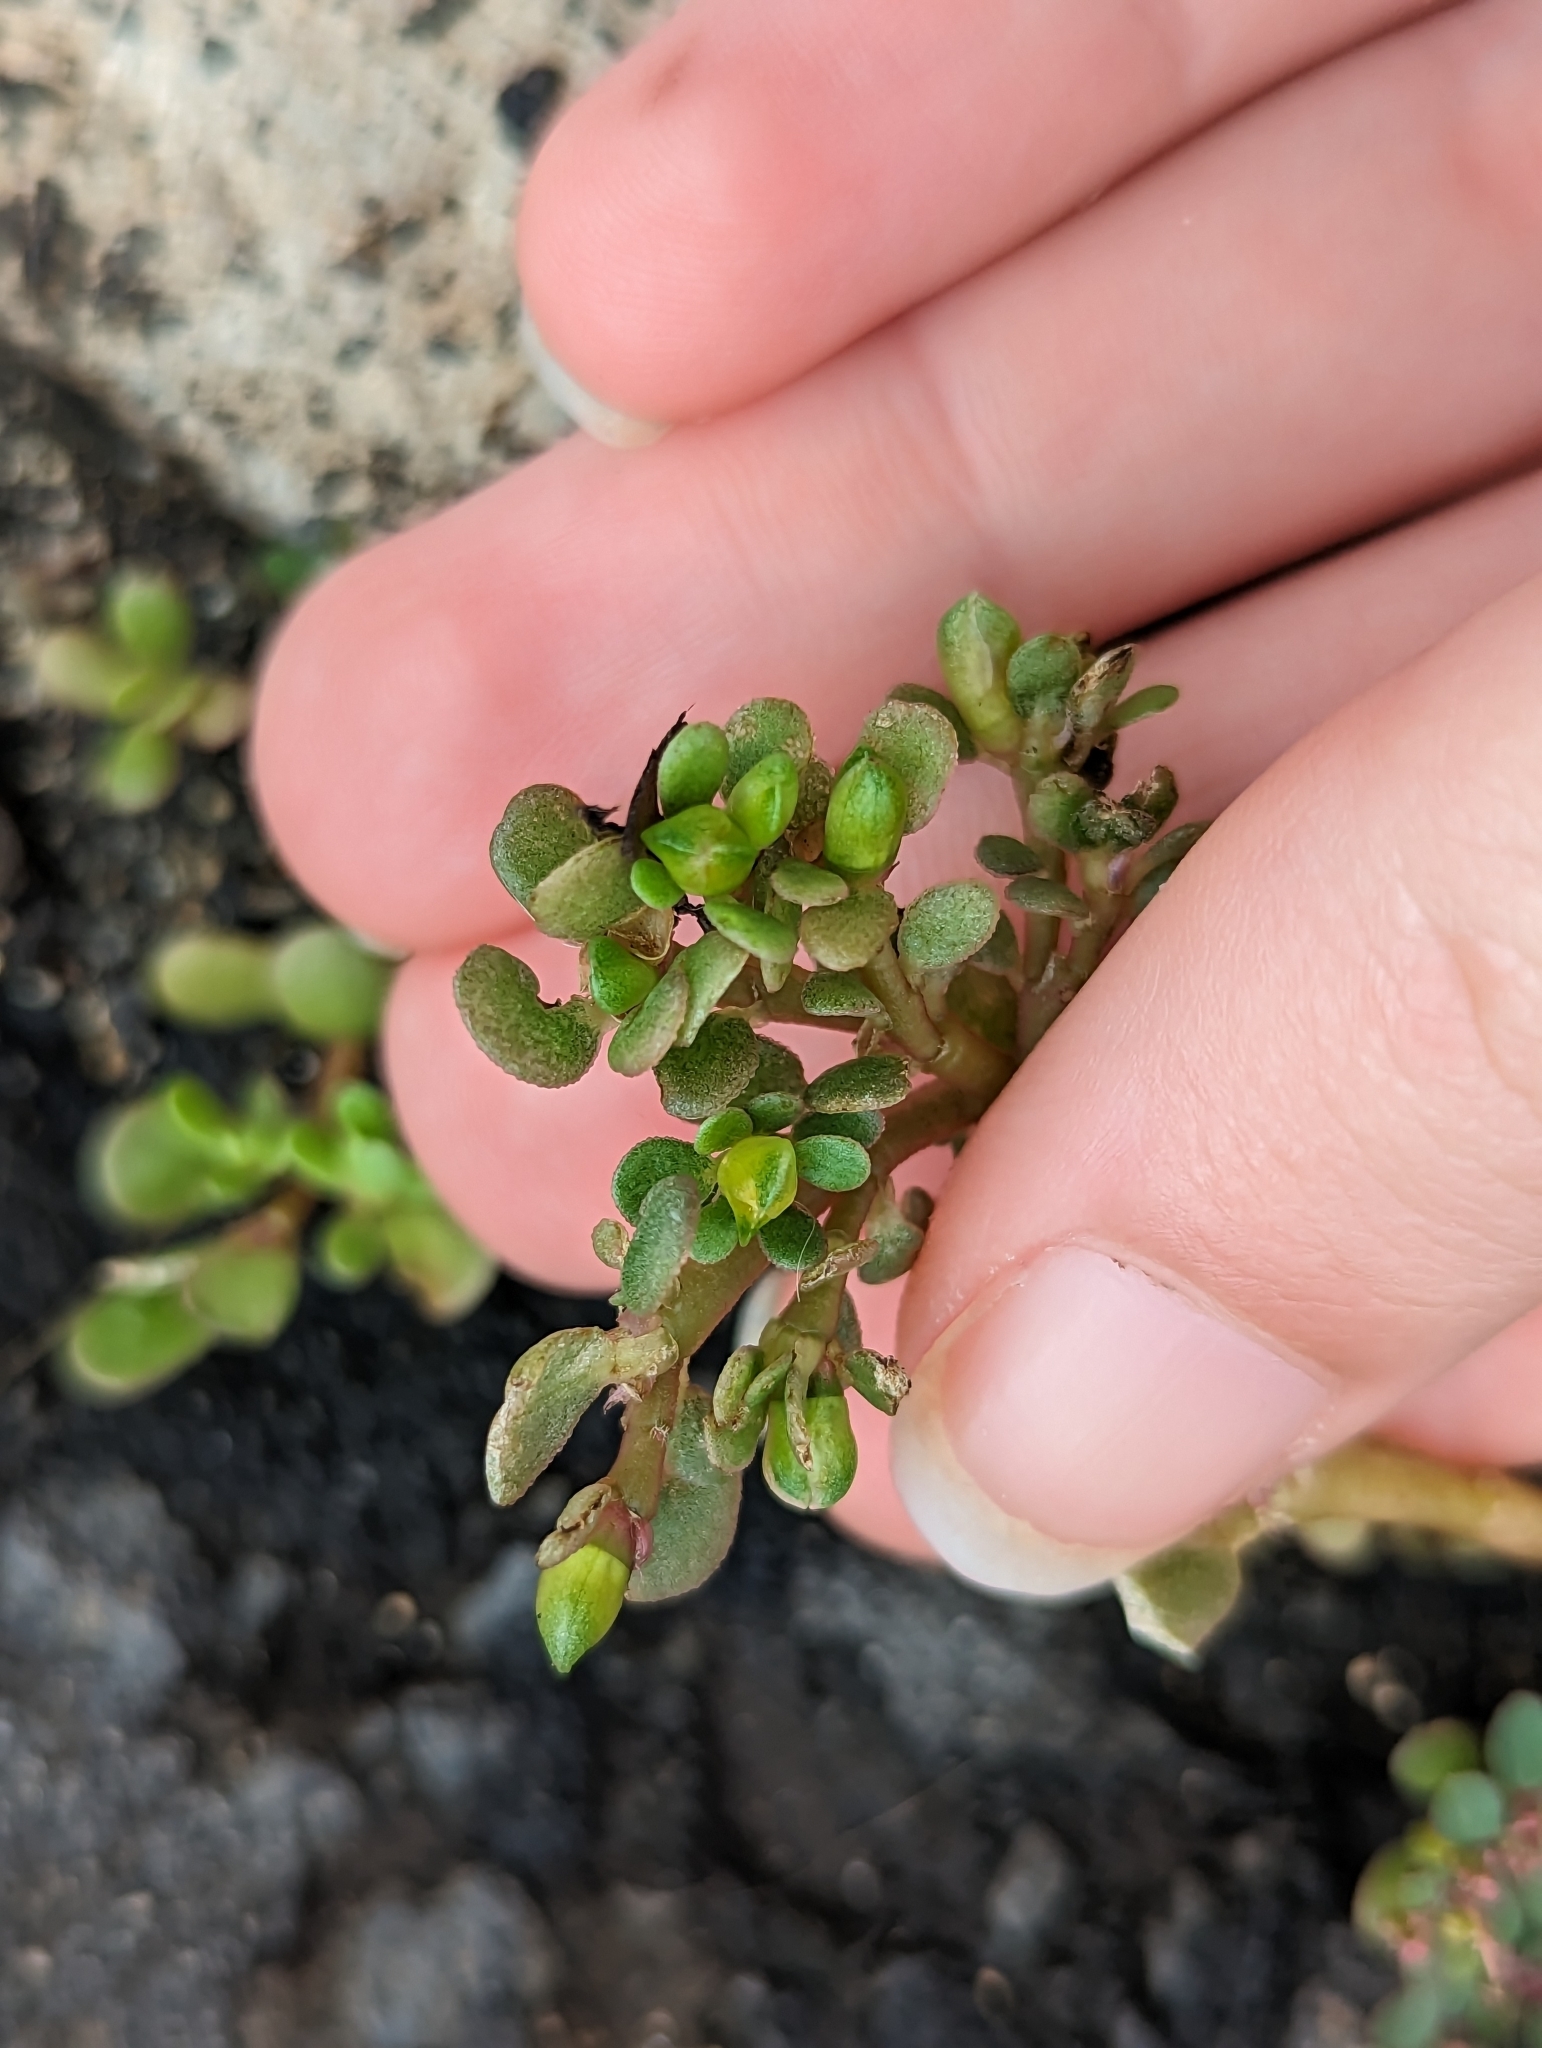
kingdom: Plantae
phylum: Tracheophyta
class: Magnoliopsida
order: Caryophyllales
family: Portulacaceae
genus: Portulaca
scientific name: Portulaca oleracea
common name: Common purslane
